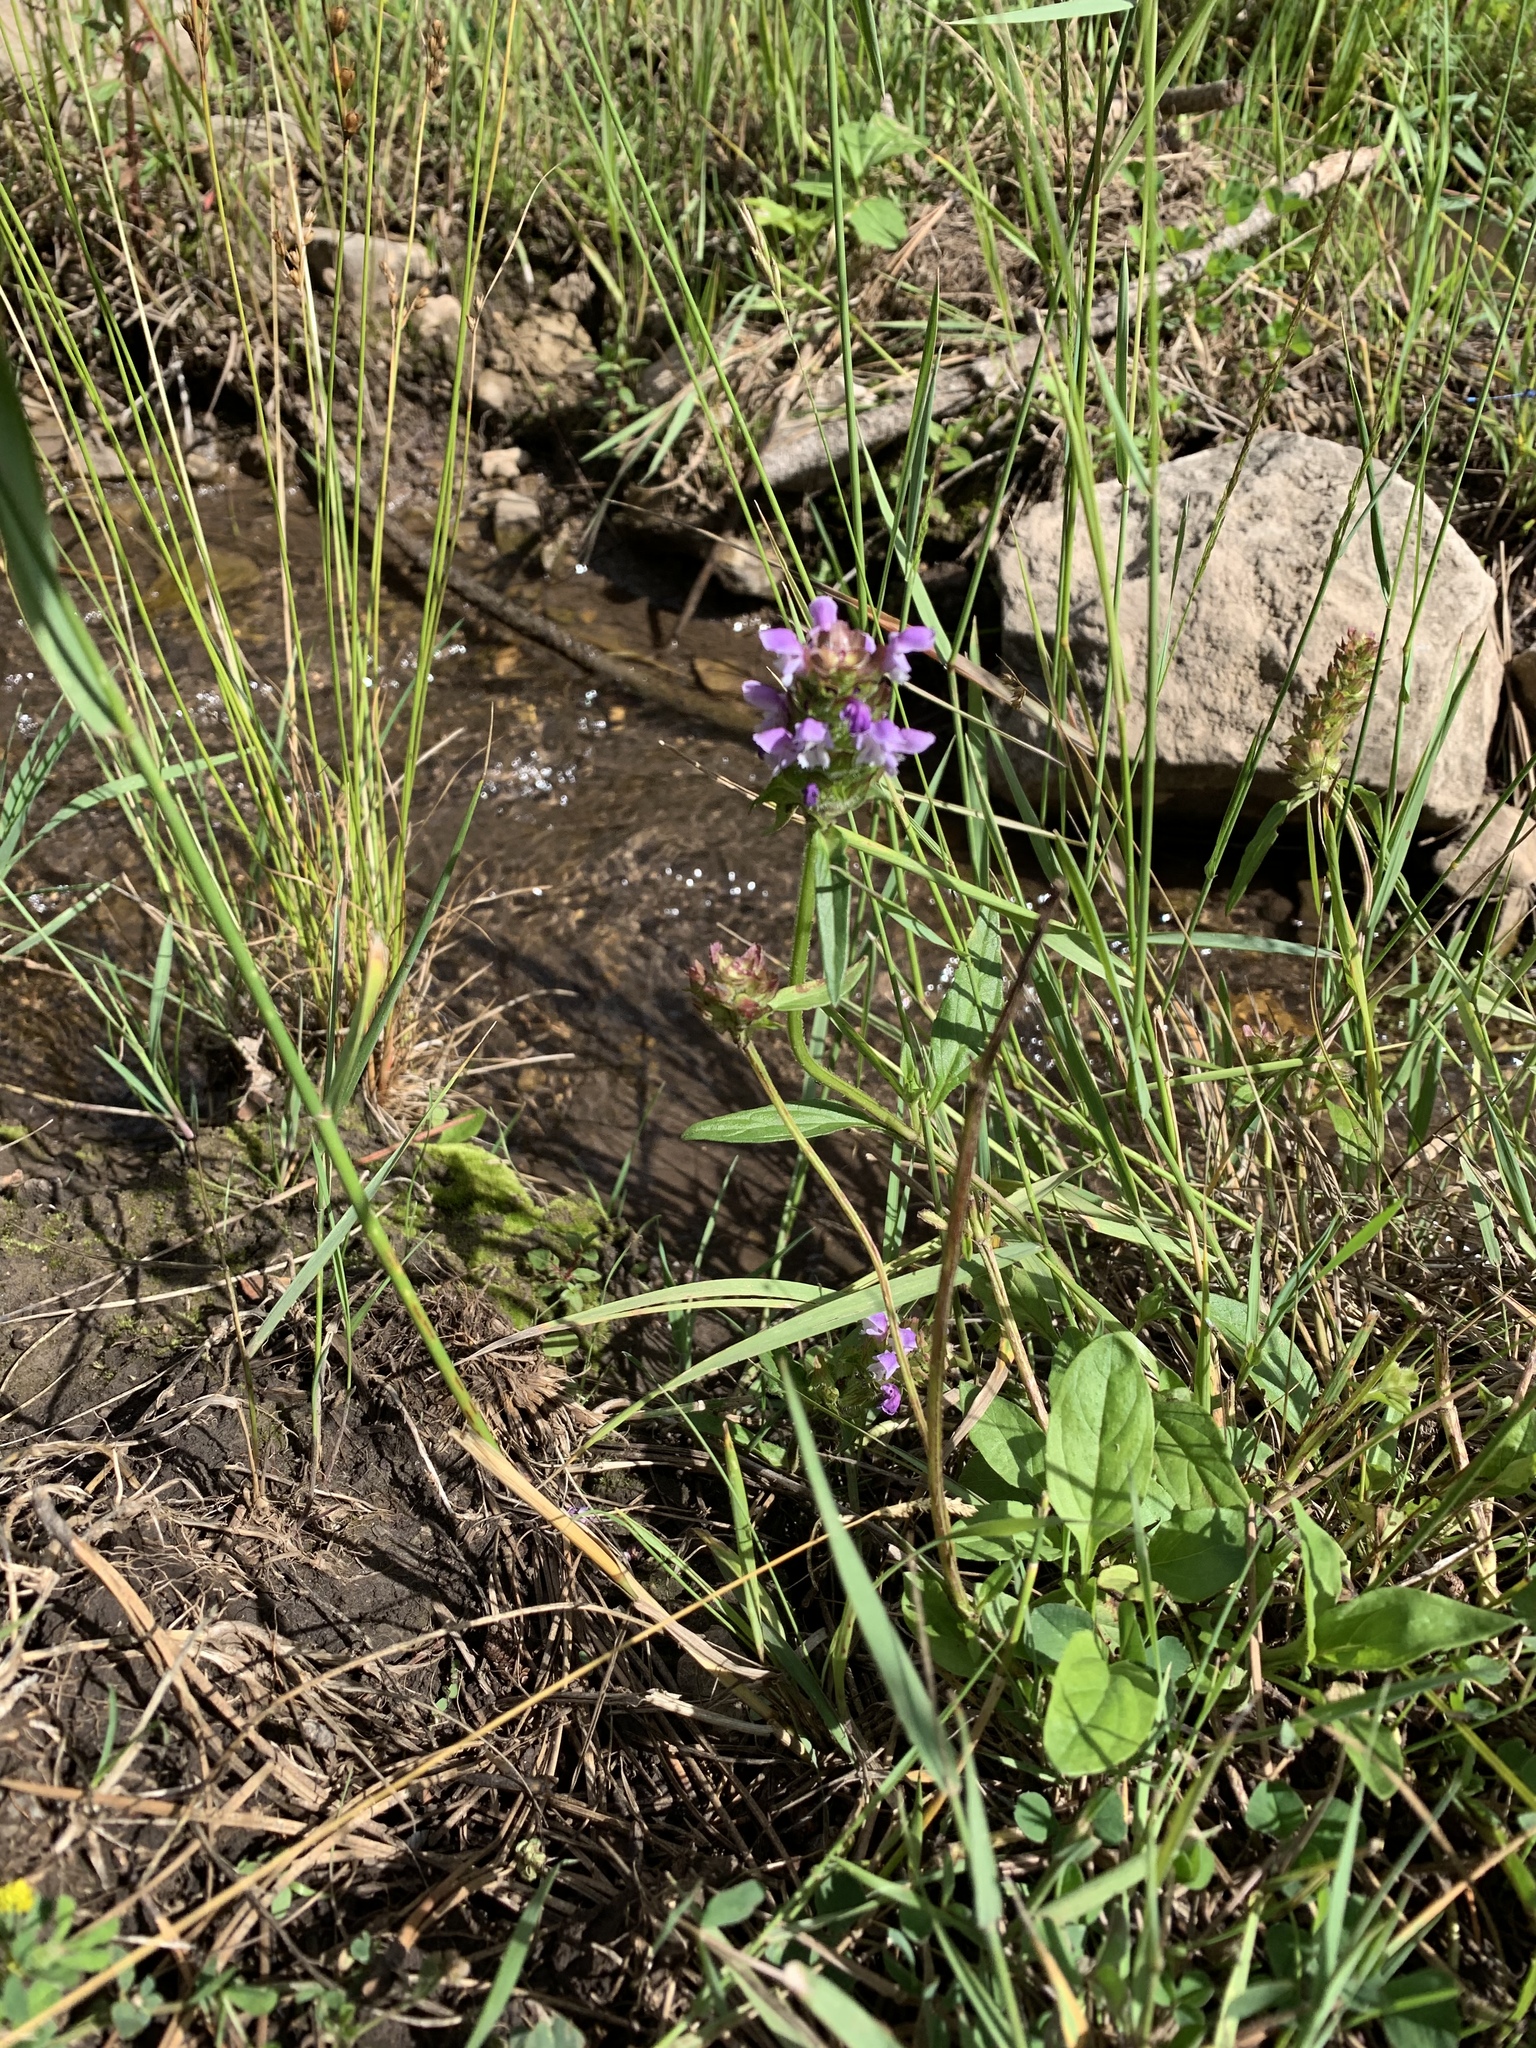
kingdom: Plantae
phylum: Tracheophyta
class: Magnoliopsida
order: Lamiales
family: Lamiaceae
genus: Prunella
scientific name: Prunella vulgaris
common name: Heal-all
